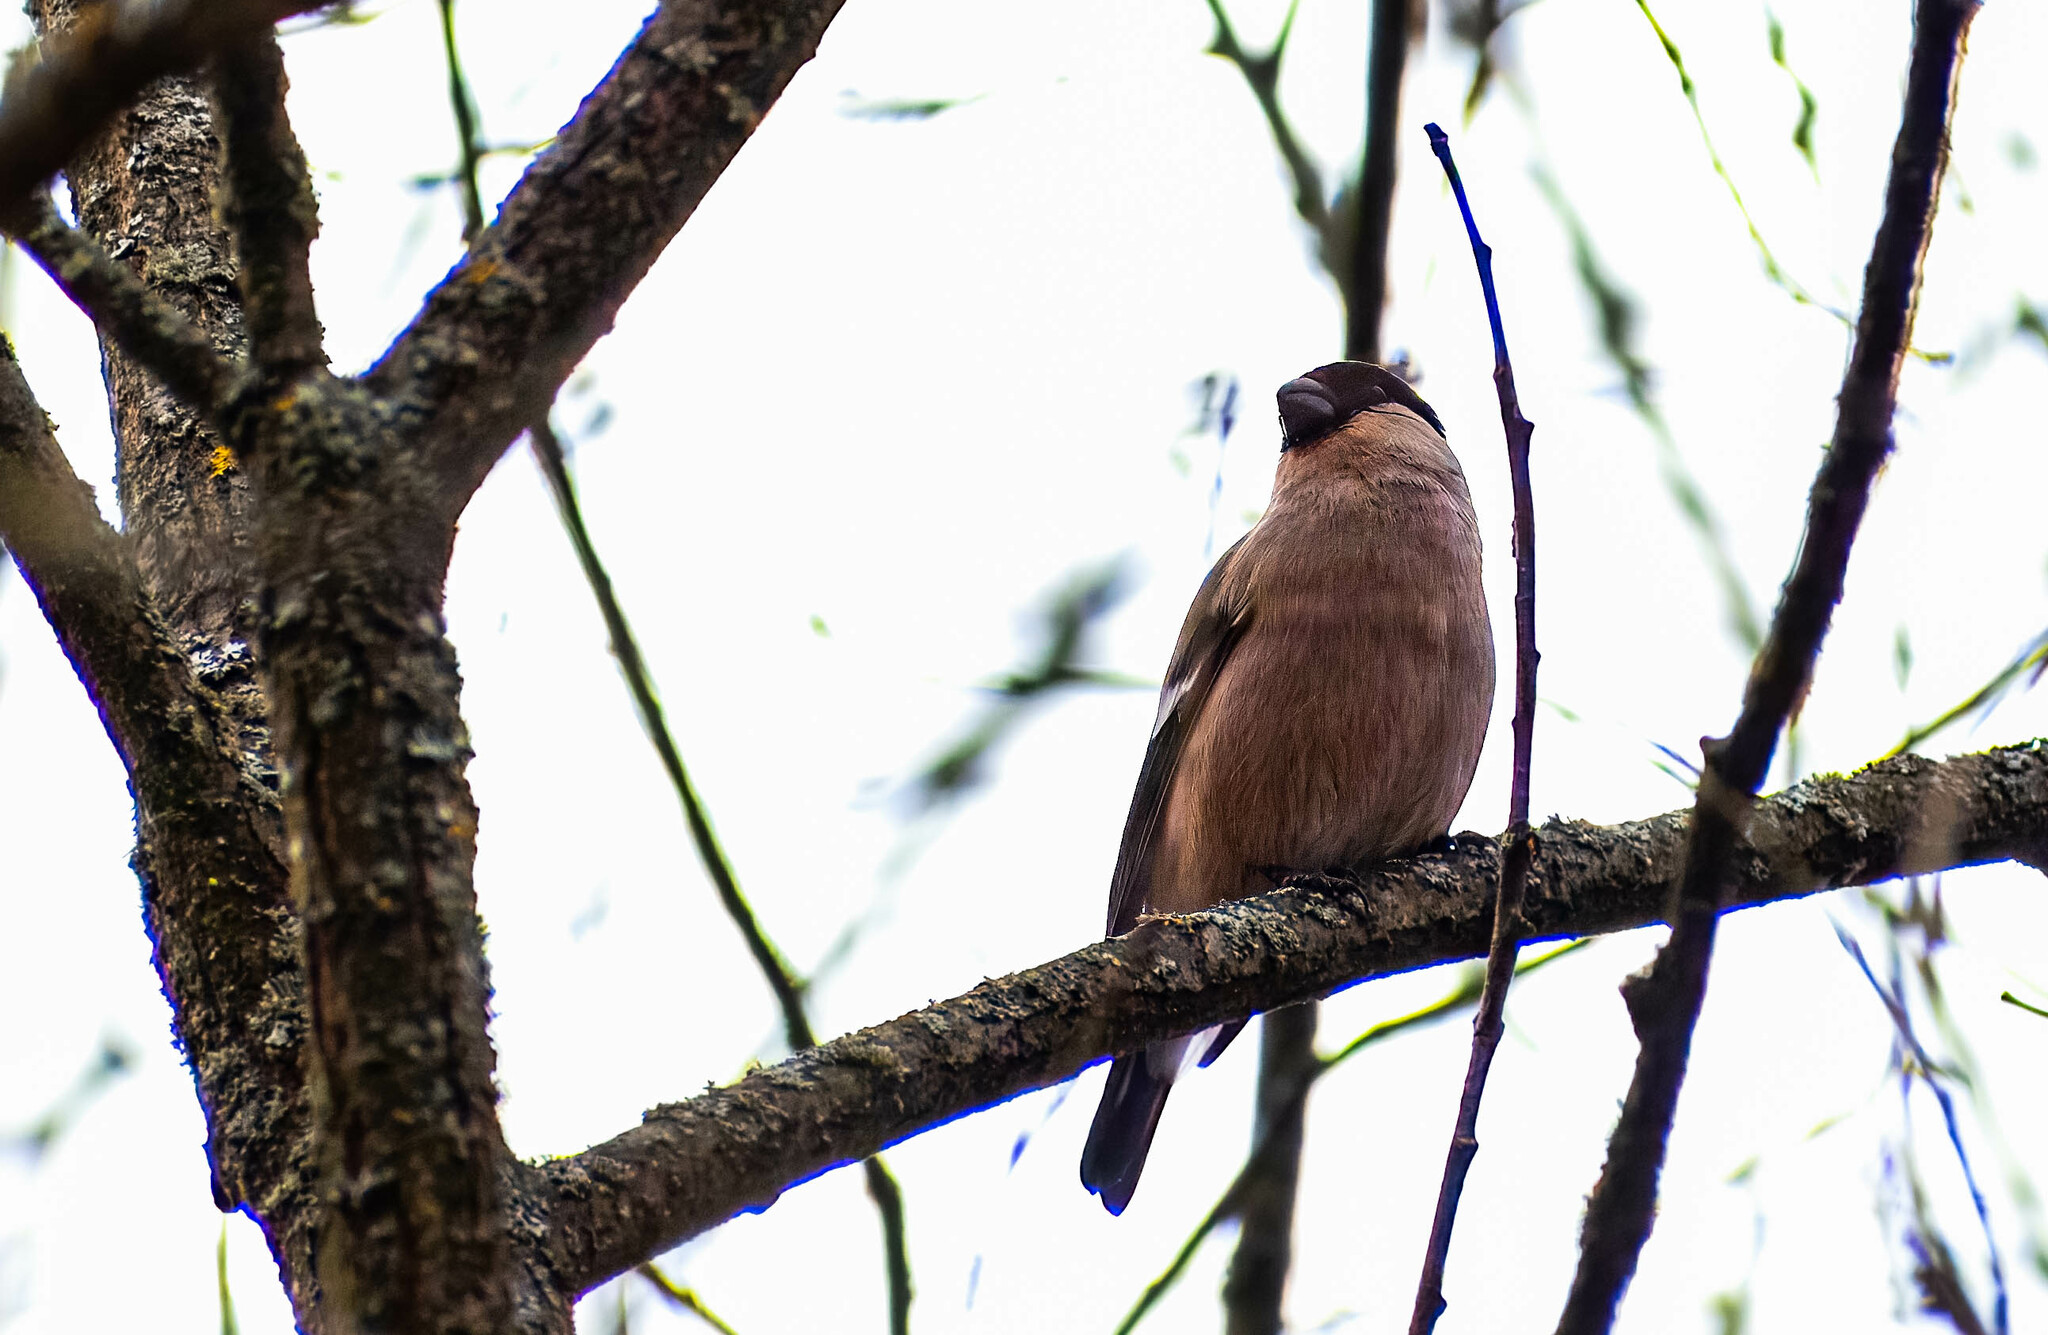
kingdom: Animalia
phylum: Chordata
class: Aves
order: Passeriformes
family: Fringillidae
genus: Pyrrhula
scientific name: Pyrrhula pyrrhula
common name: Eurasian bullfinch
